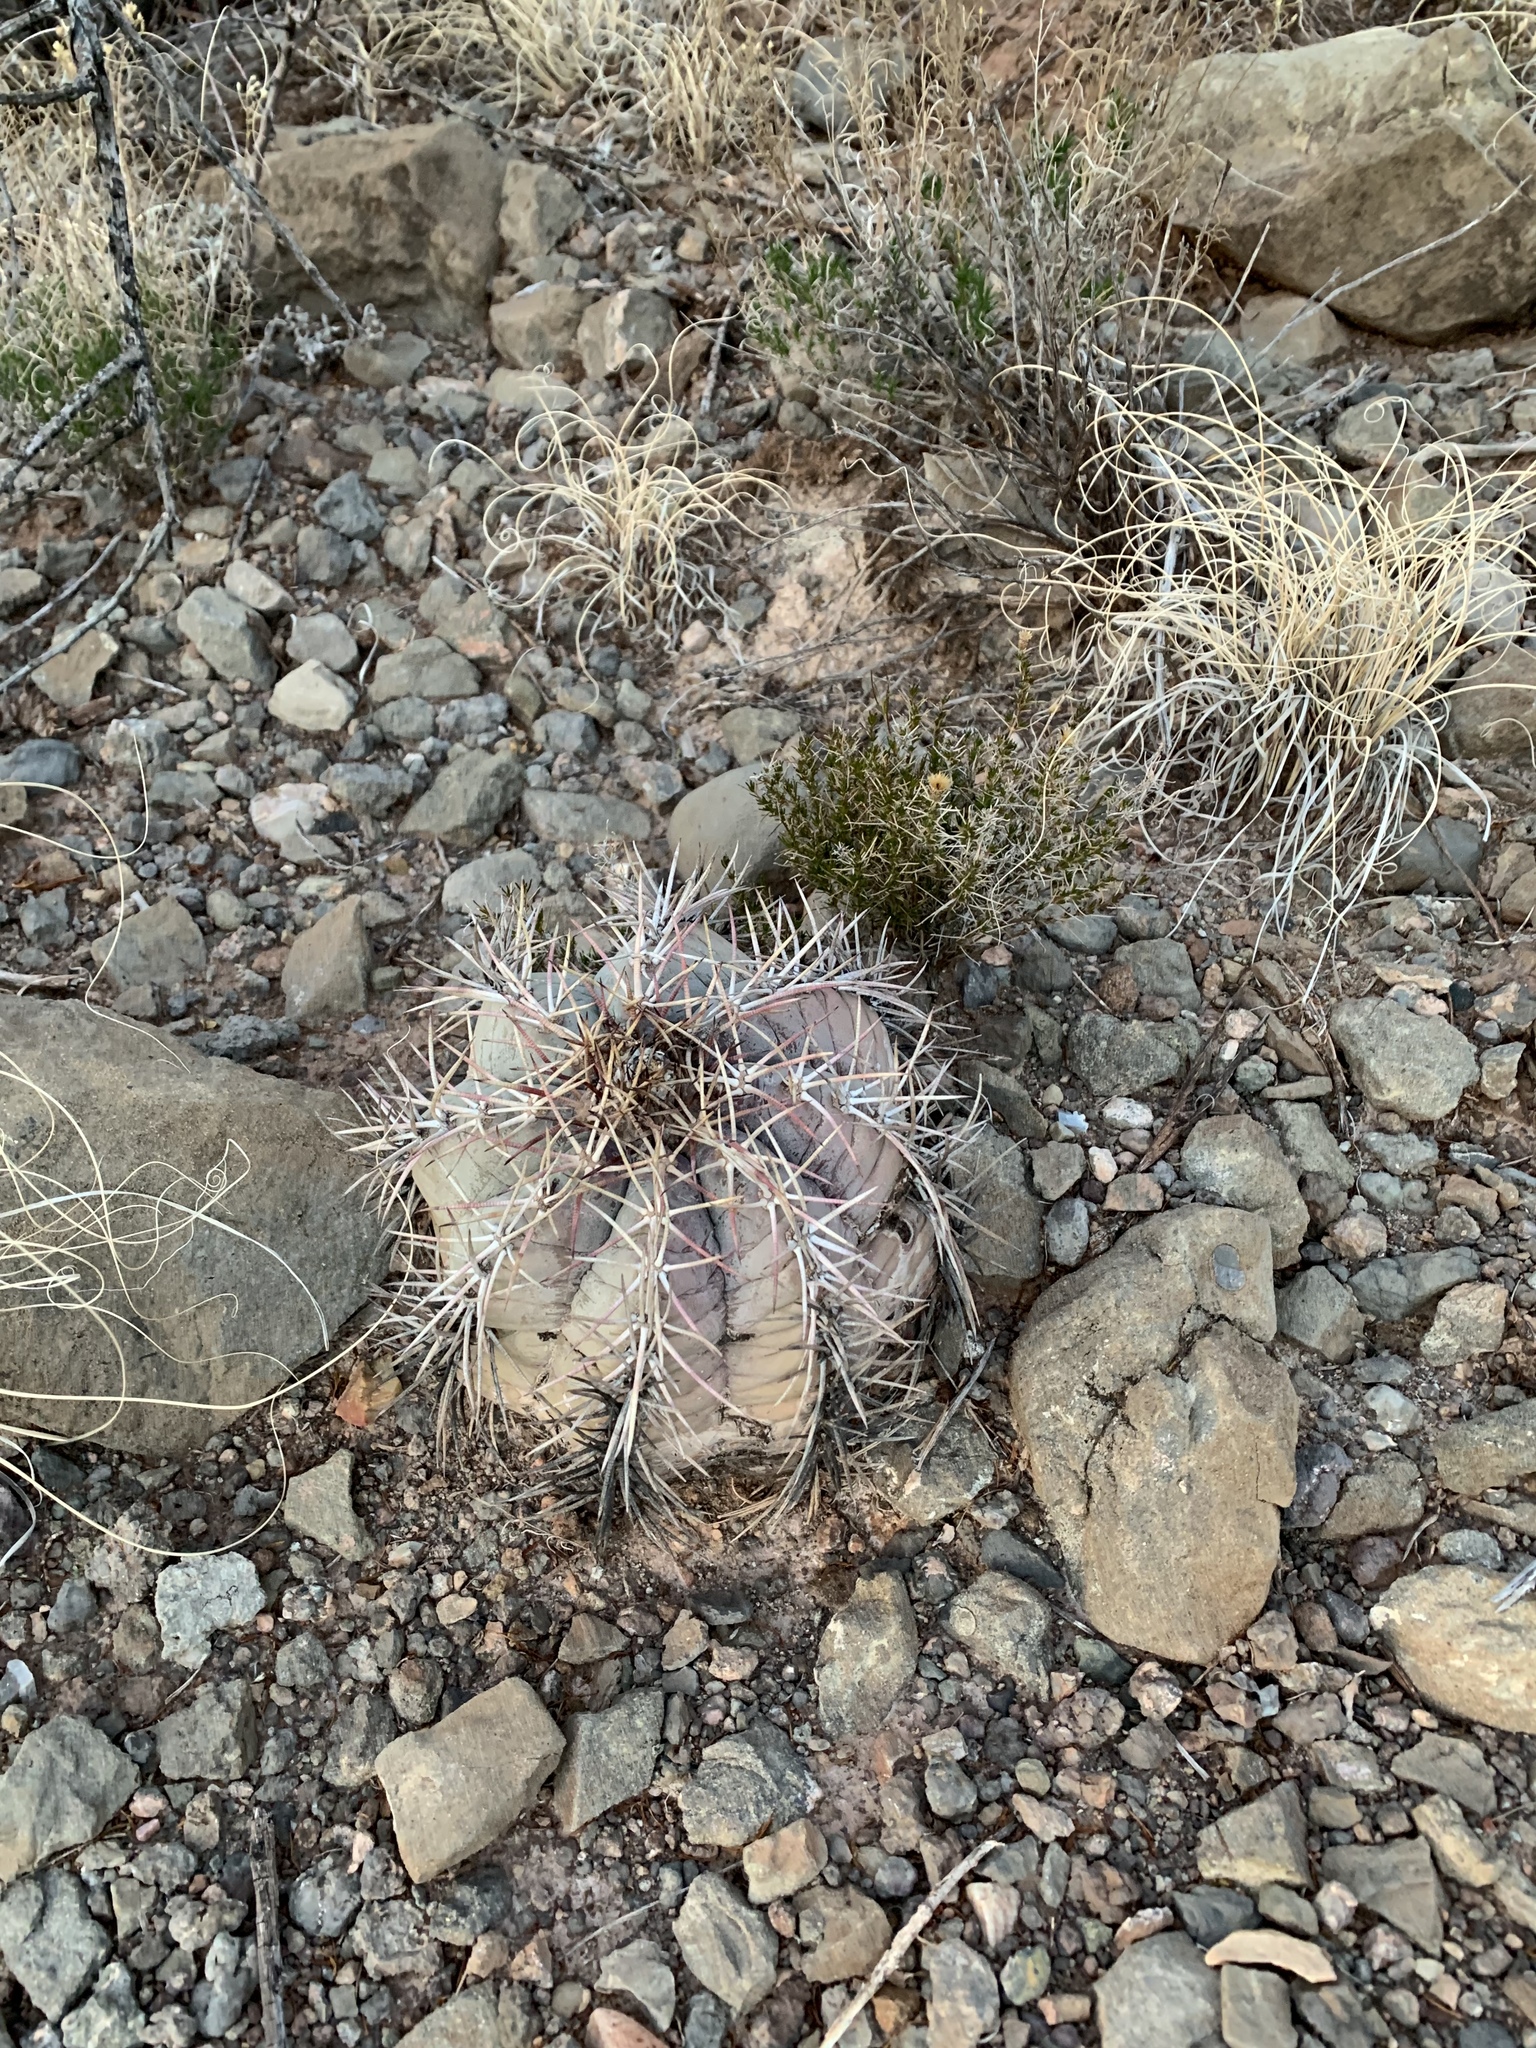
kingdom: Plantae
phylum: Tracheophyta
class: Magnoliopsida
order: Caryophyllales
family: Cactaceae
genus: Echinocactus
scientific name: Echinocactus horizonthalonius
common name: Devilshead
